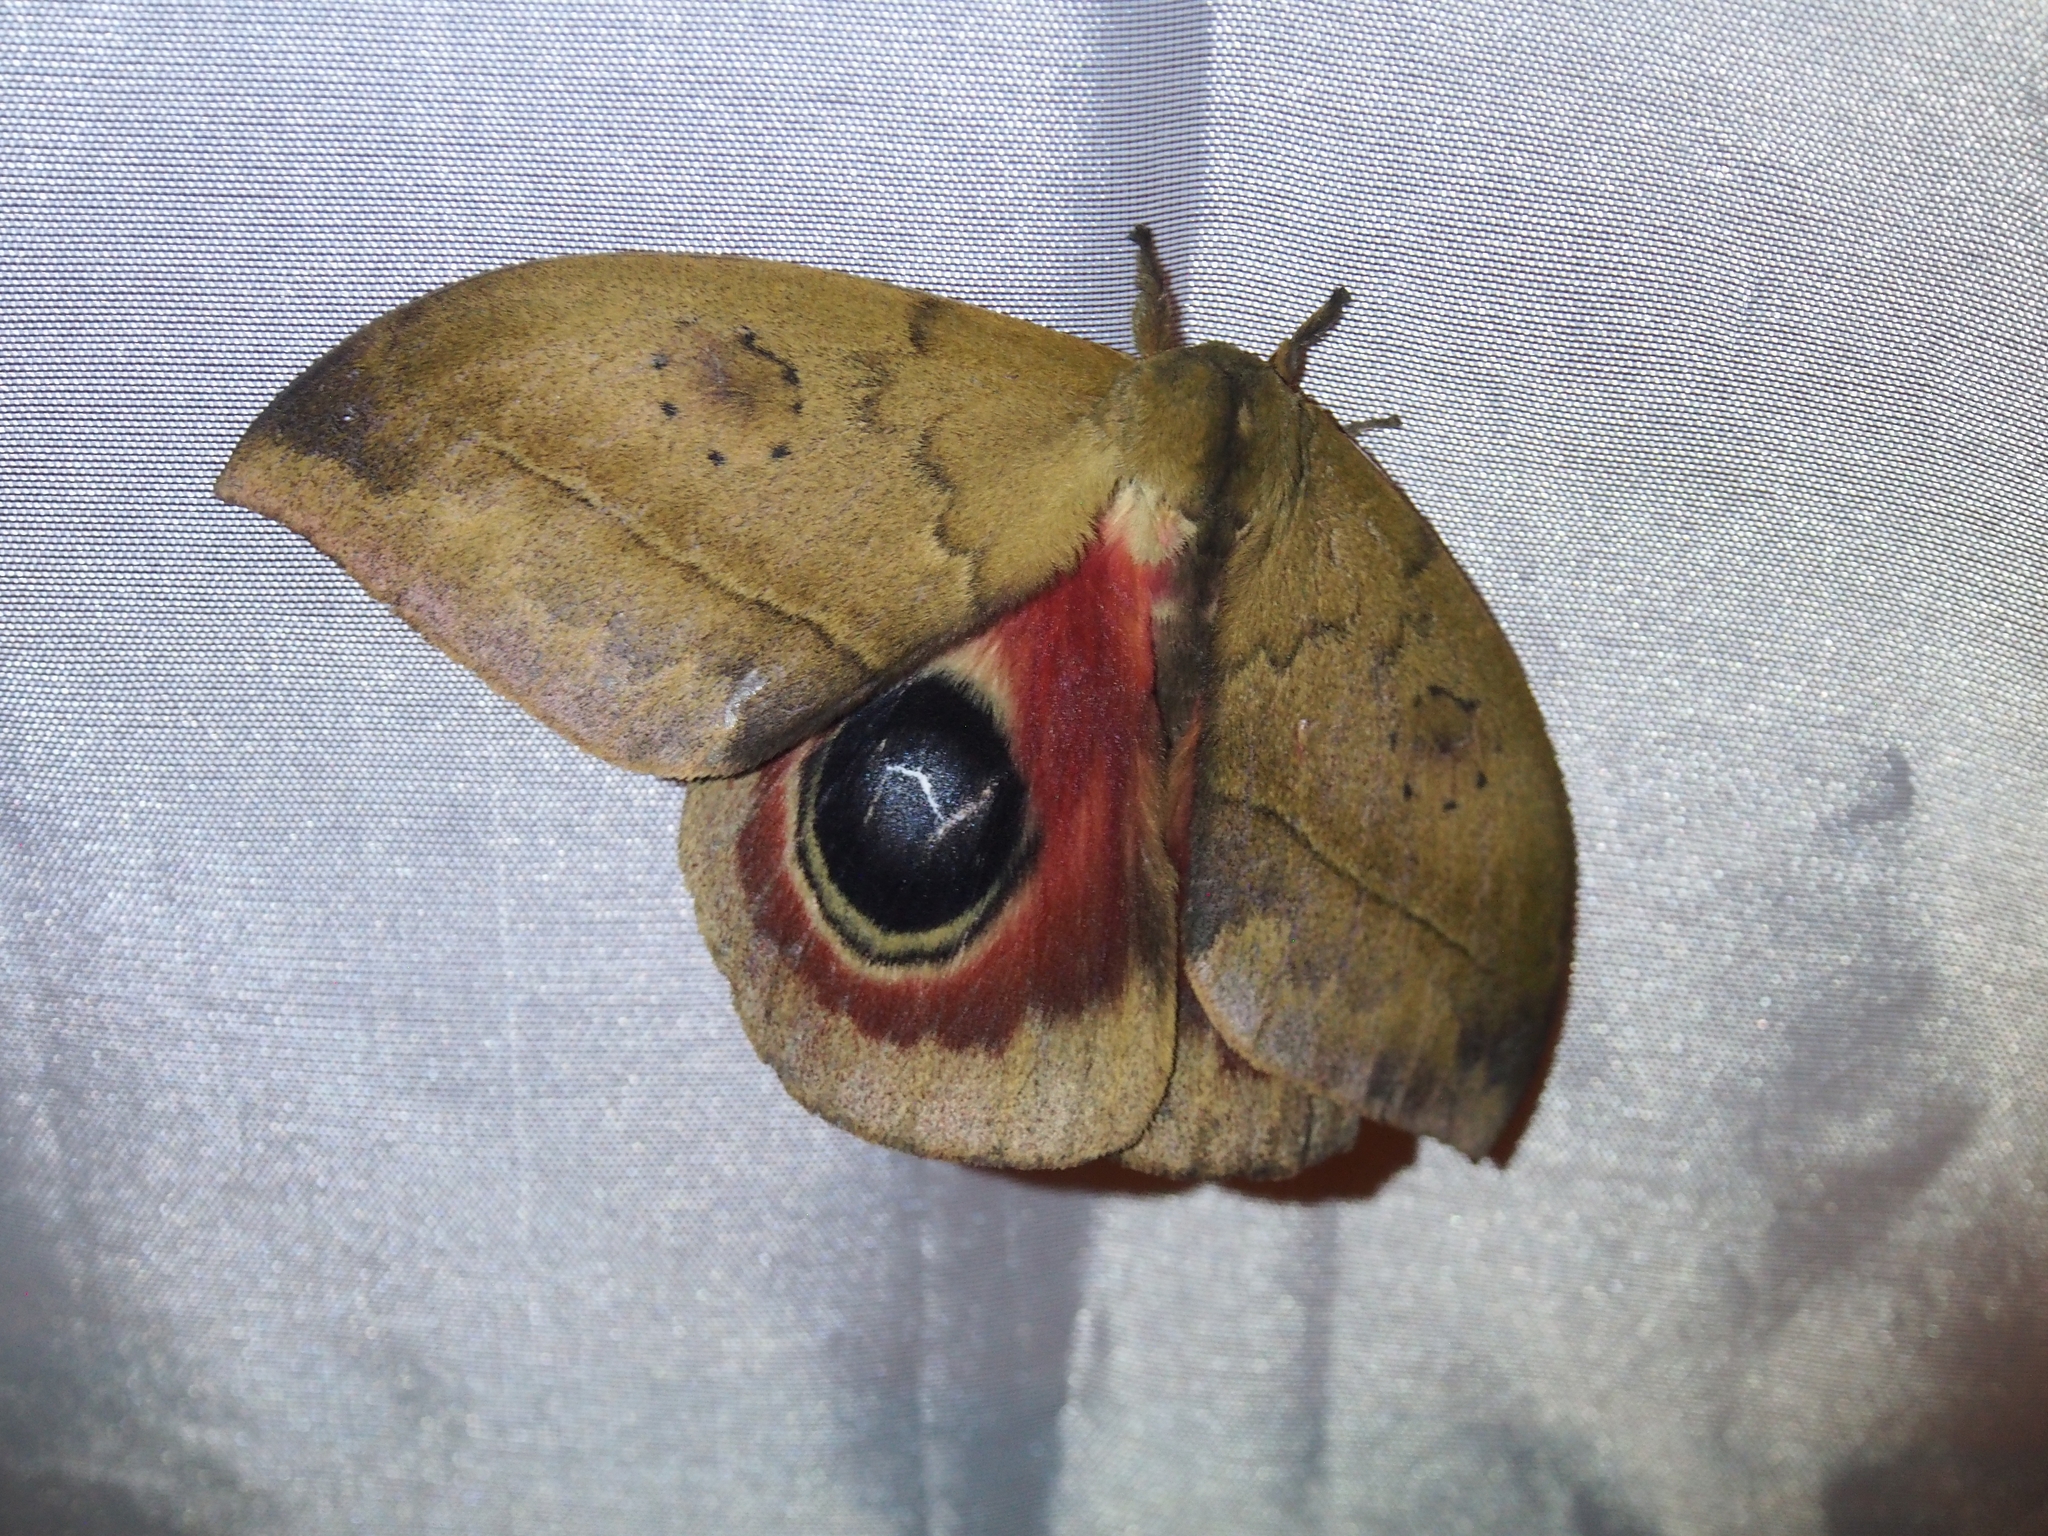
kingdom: Animalia
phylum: Arthropoda
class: Insecta
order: Lepidoptera
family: Saturniidae
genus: Automeris
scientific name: Automeris exigua
